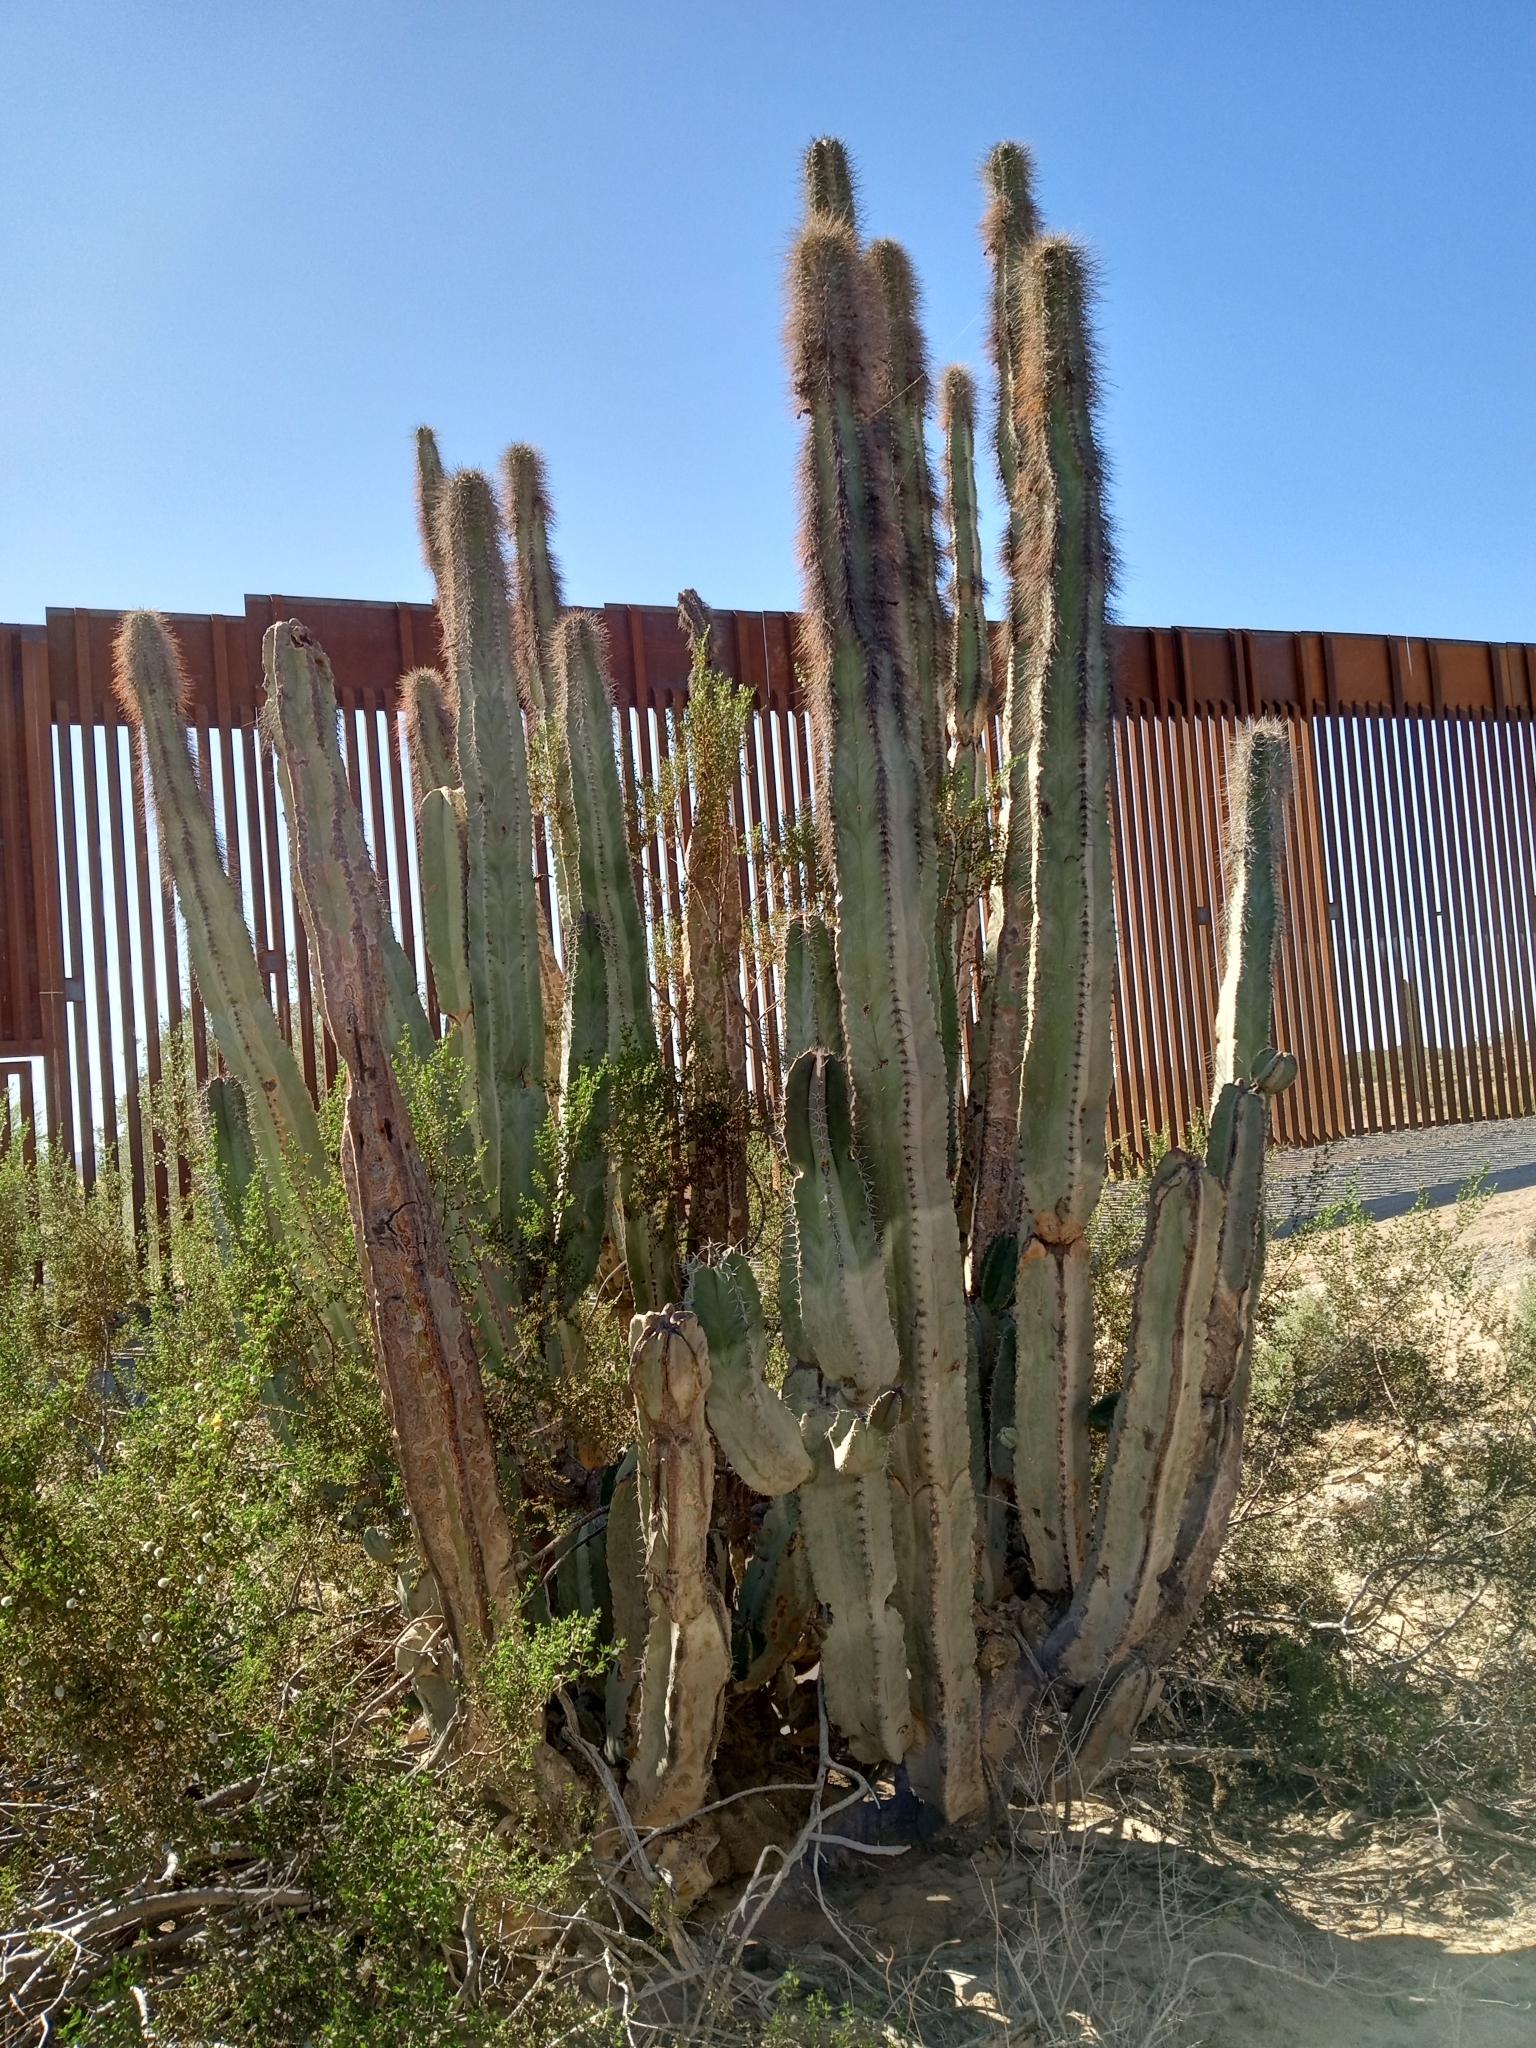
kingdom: Plantae
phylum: Tracheophyta
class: Magnoliopsida
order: Caryophyllales
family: Cactaceae
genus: Pachycereus
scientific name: Pachycereus schottii
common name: Senita cactus
